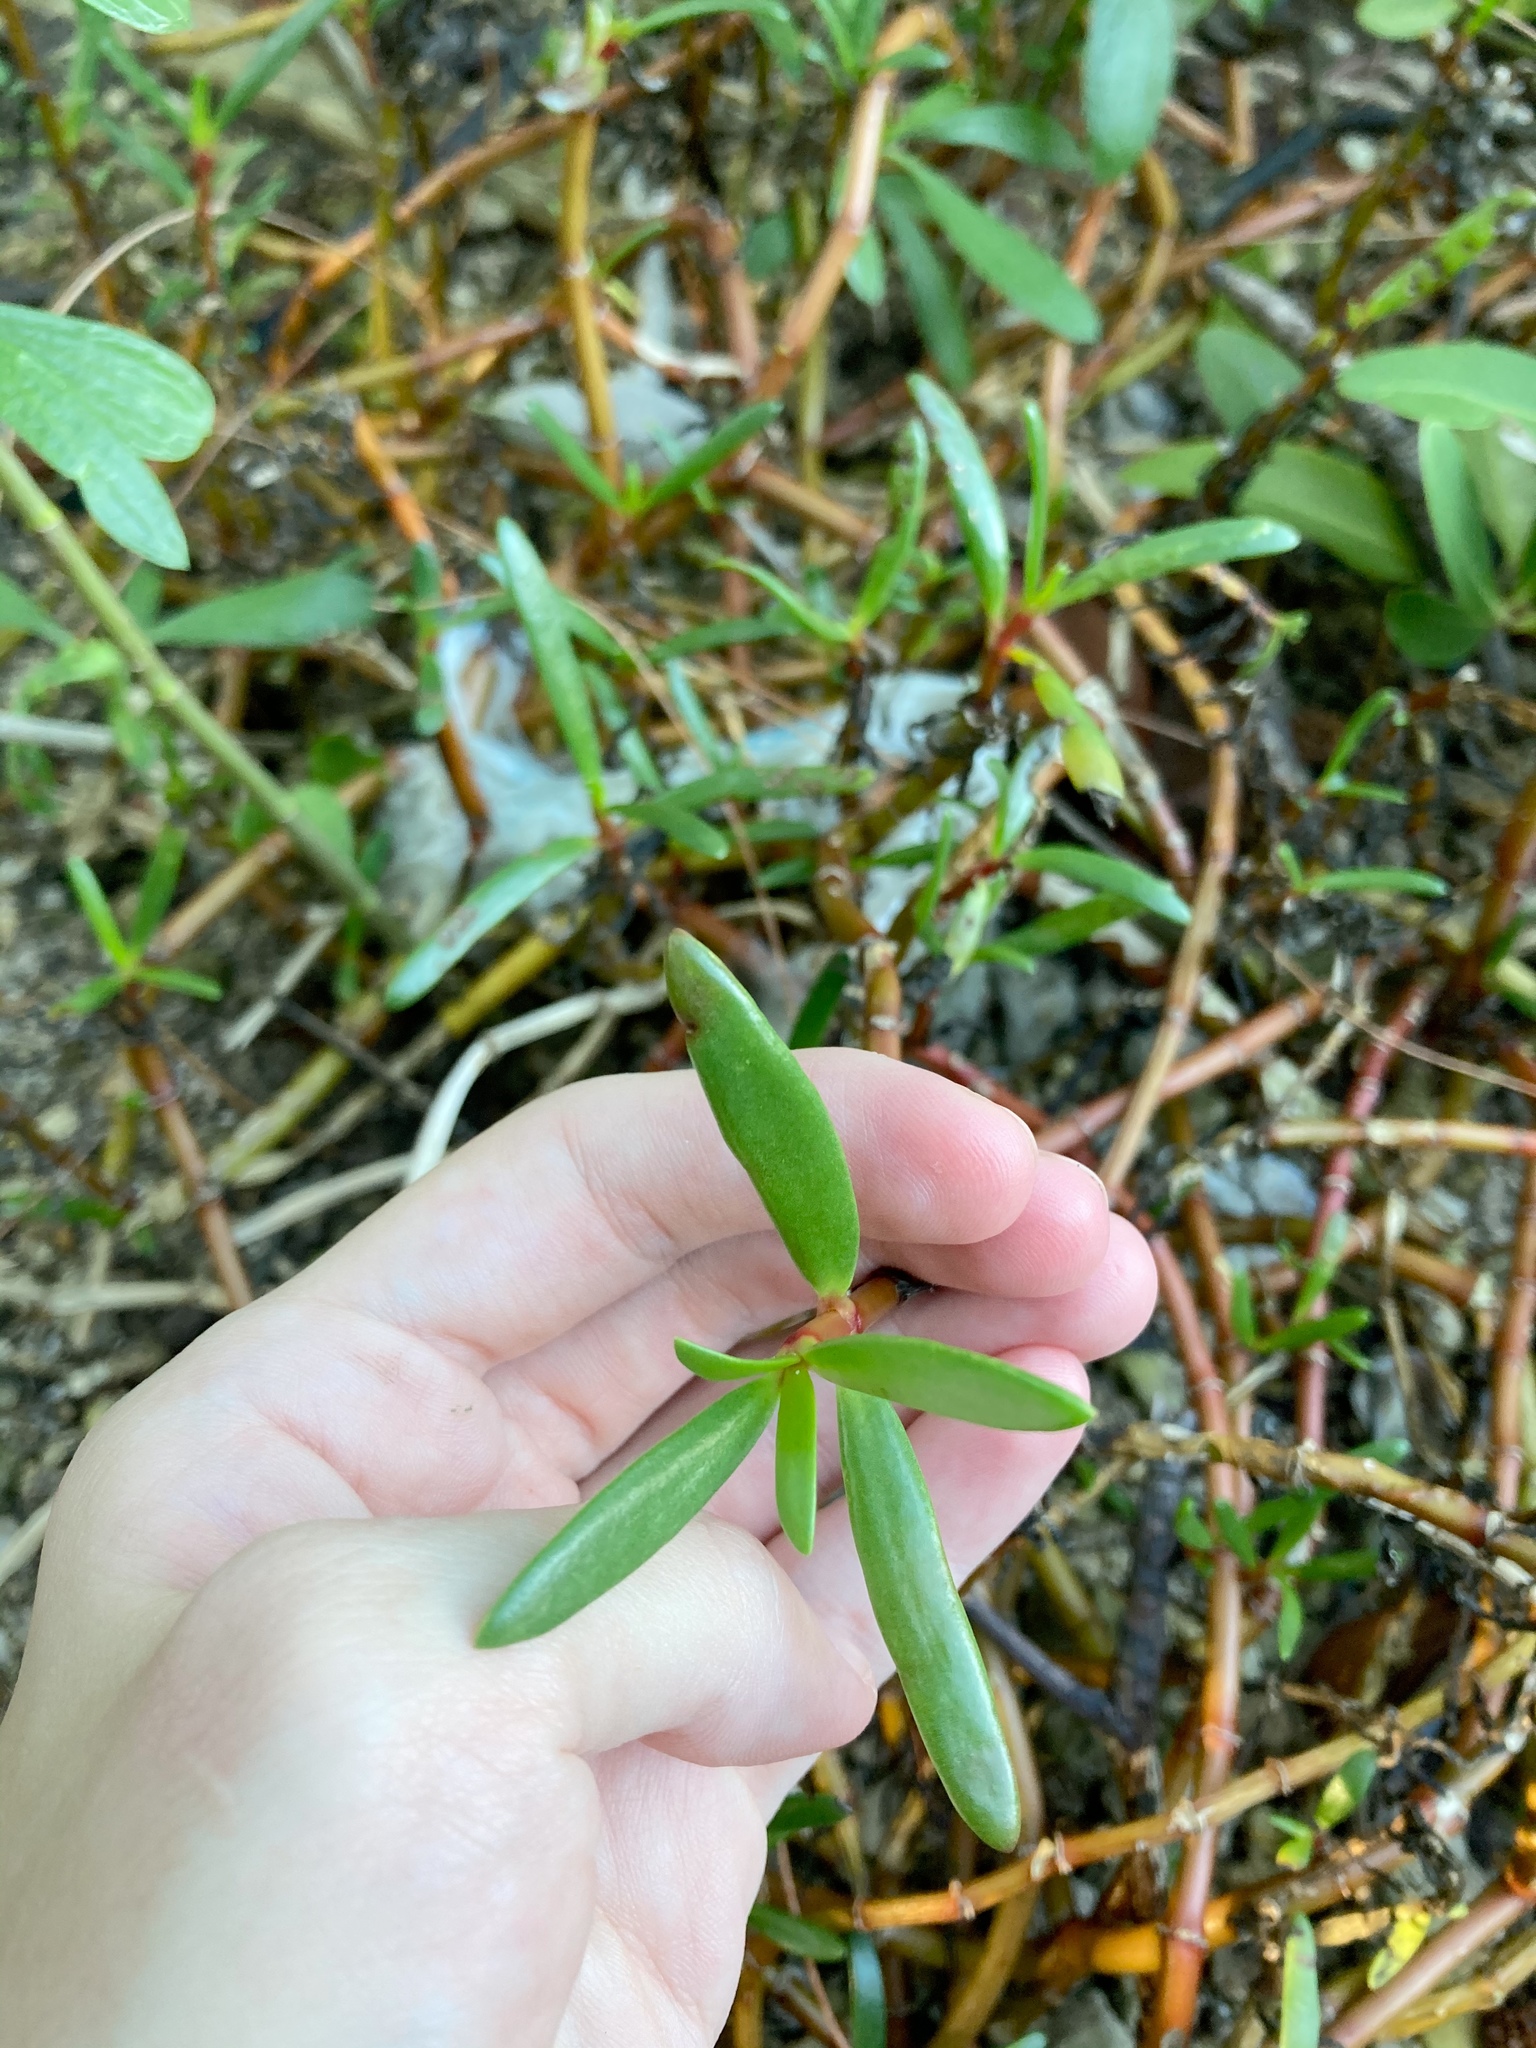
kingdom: Plantae
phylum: Tracheophyta
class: Magnoliopsida
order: Caryophyllales
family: Aizoaceae
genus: Sesuvium
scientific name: Sesuvium portulacastrum
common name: Sea-purslane
